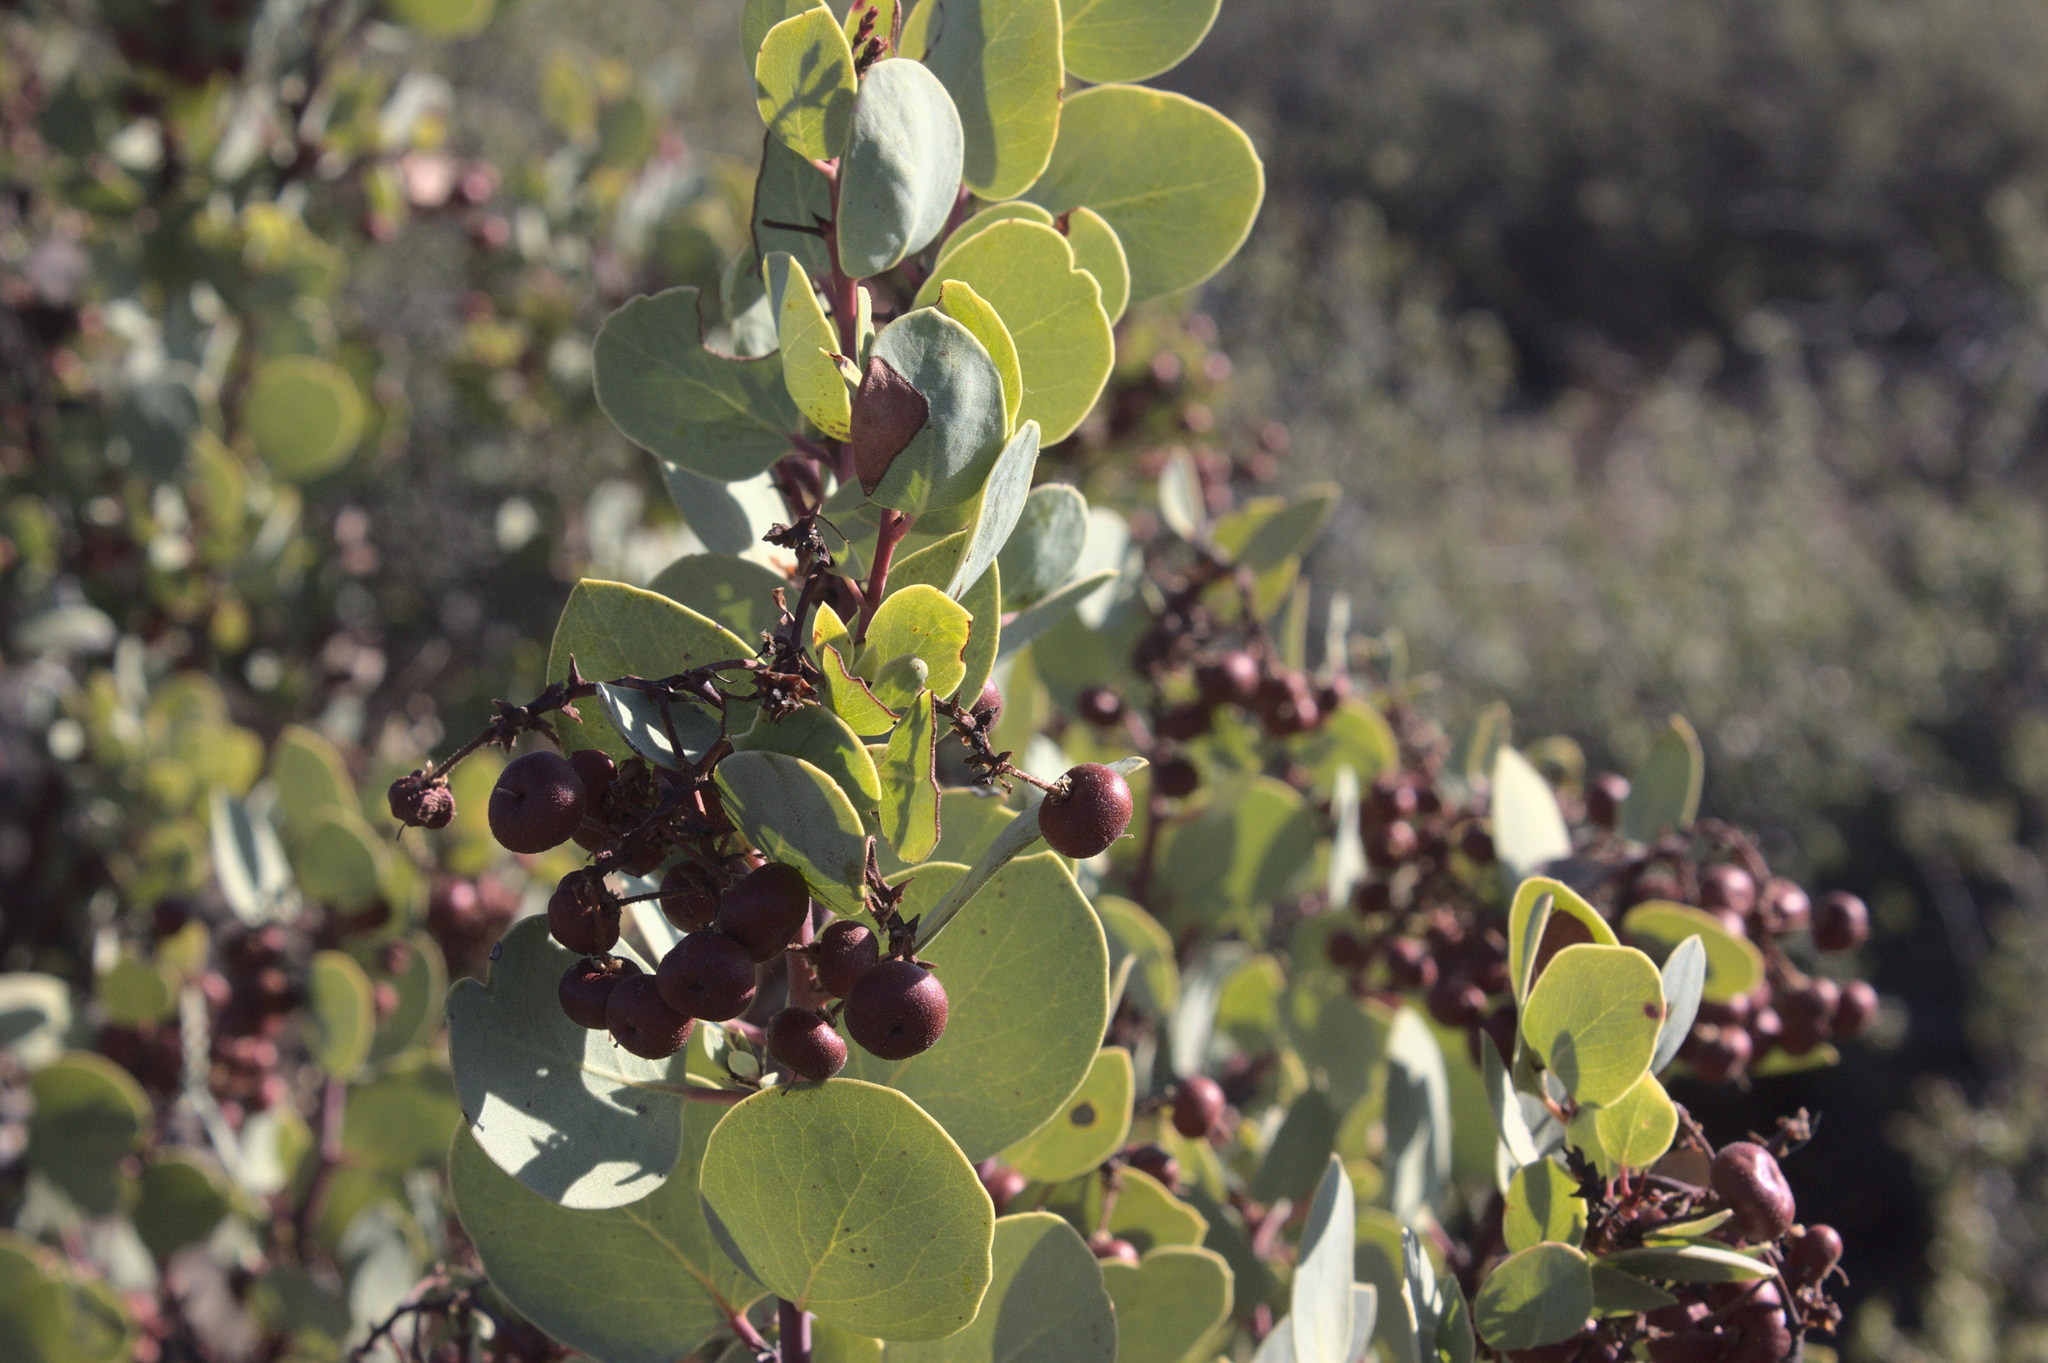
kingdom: Plantae
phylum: Tracheophyta
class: Magnoliopsida
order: Ericales
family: Ericaceae
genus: Arctostaphylos
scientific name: Arctostaphylos viscida
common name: White-leaf manzanita
